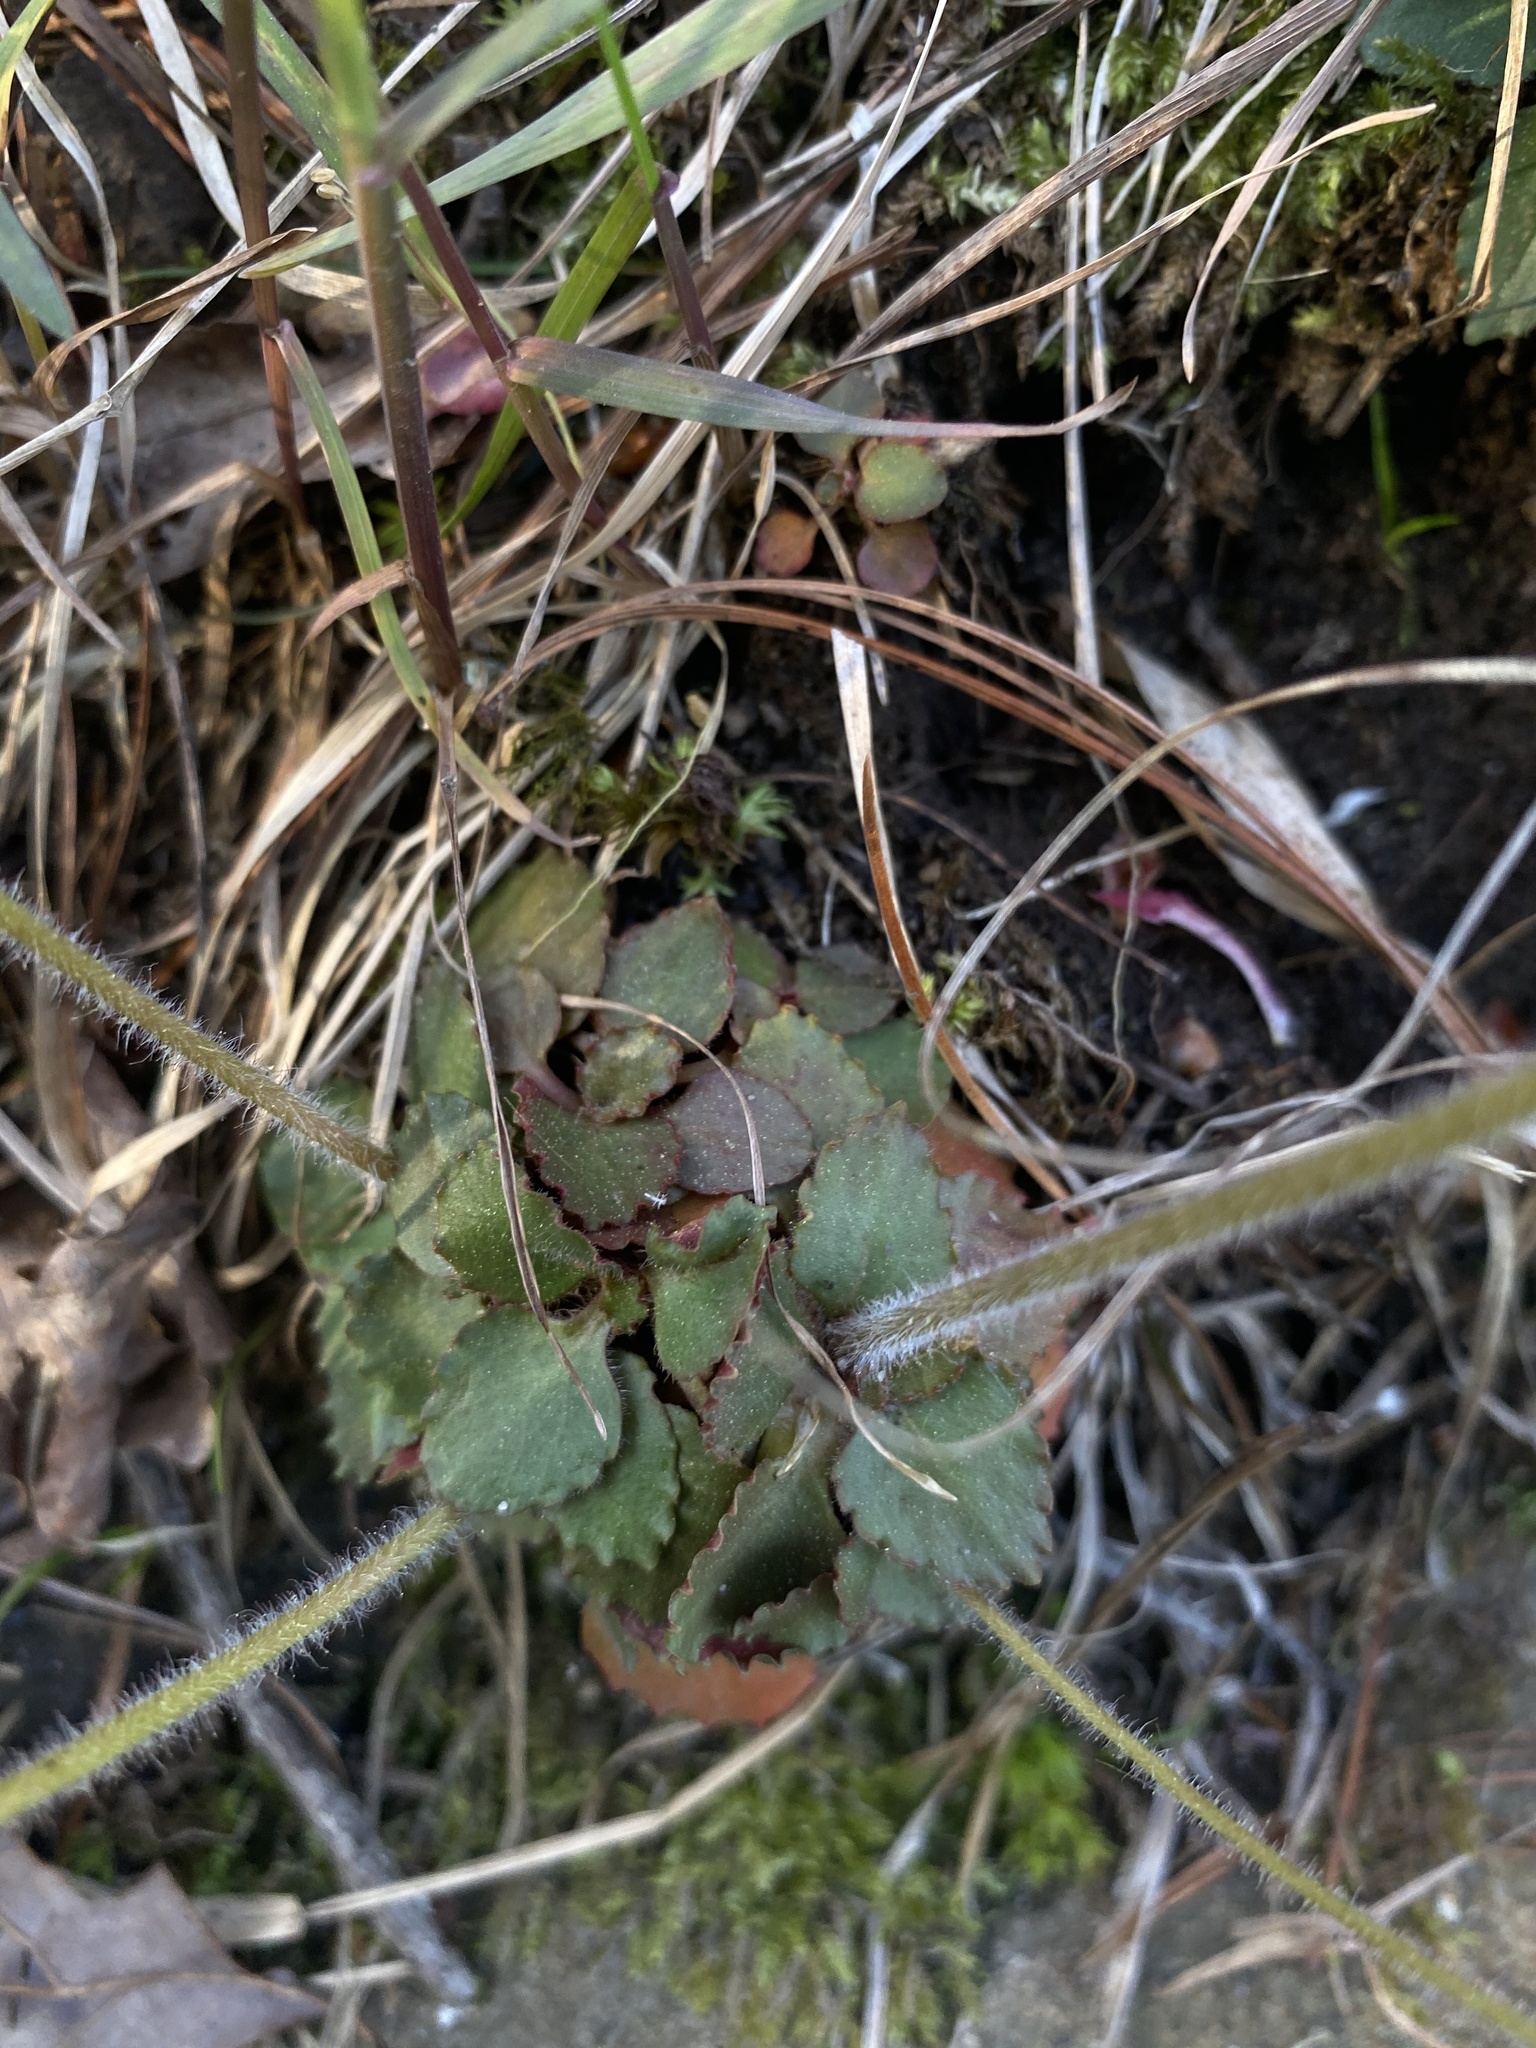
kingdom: Plantae
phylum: Tracheophyta
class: Magnoliopsida
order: Saxifragales
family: Saxifragaceae
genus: Micranthes
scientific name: Micranthes virginiensis
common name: Early saxifrage
